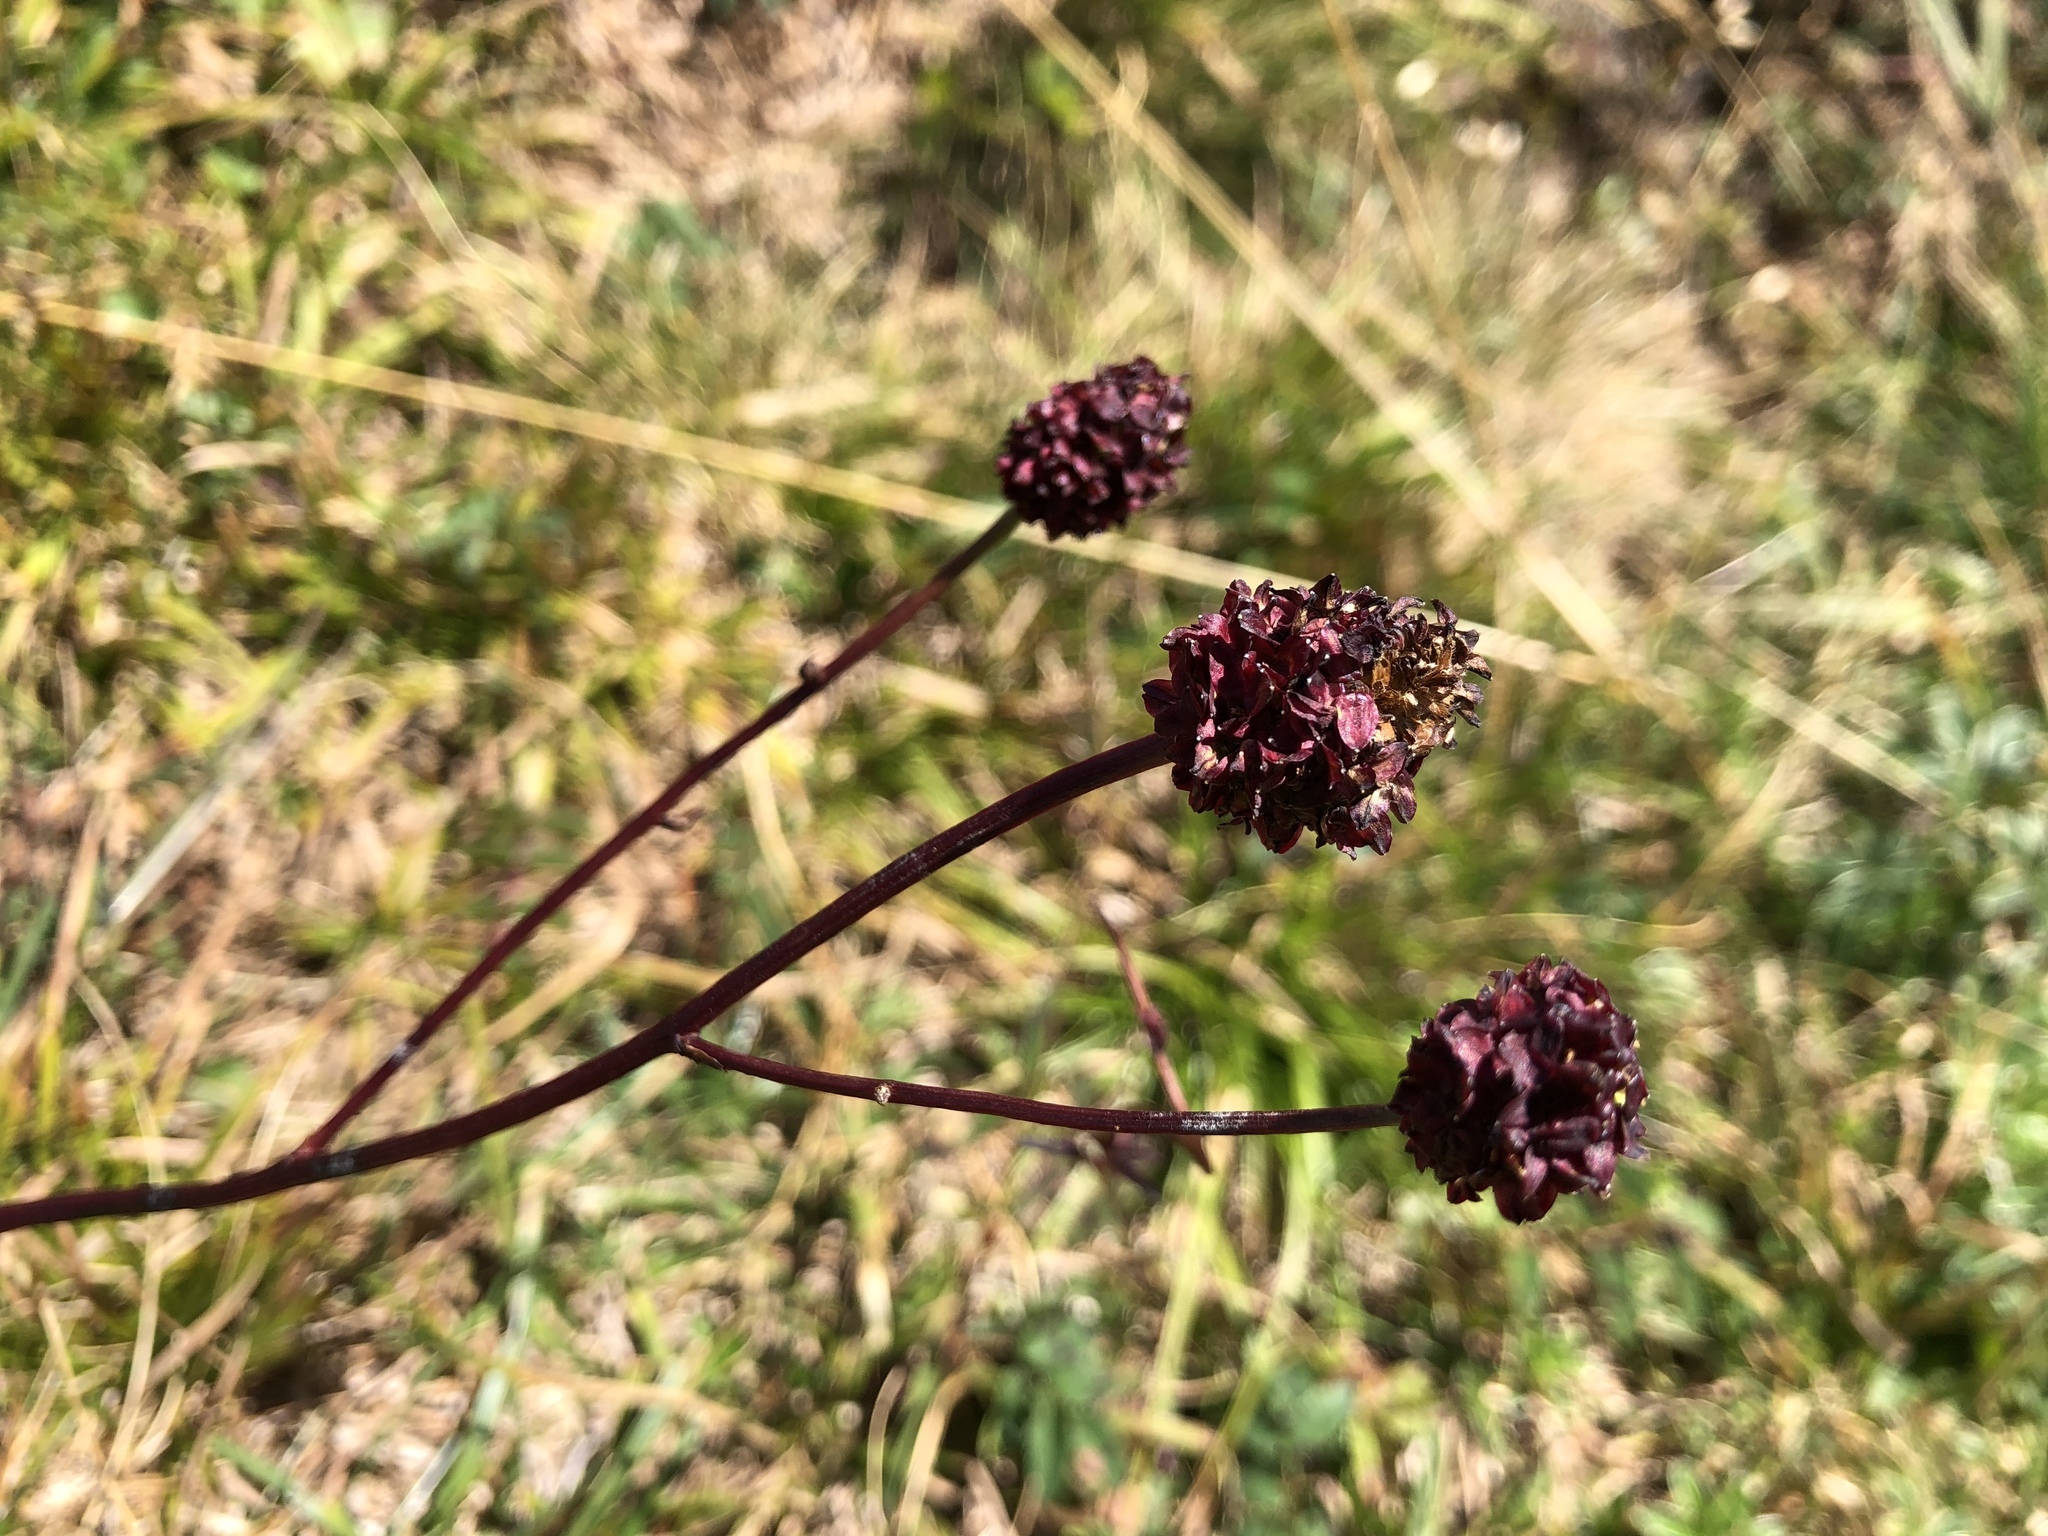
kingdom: Plantae
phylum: Tracheophyta
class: Magnoliopsida
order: Rosales
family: Rosaceae
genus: Sanguisorba
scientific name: Sanguisorba officinalis
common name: Great burnet
